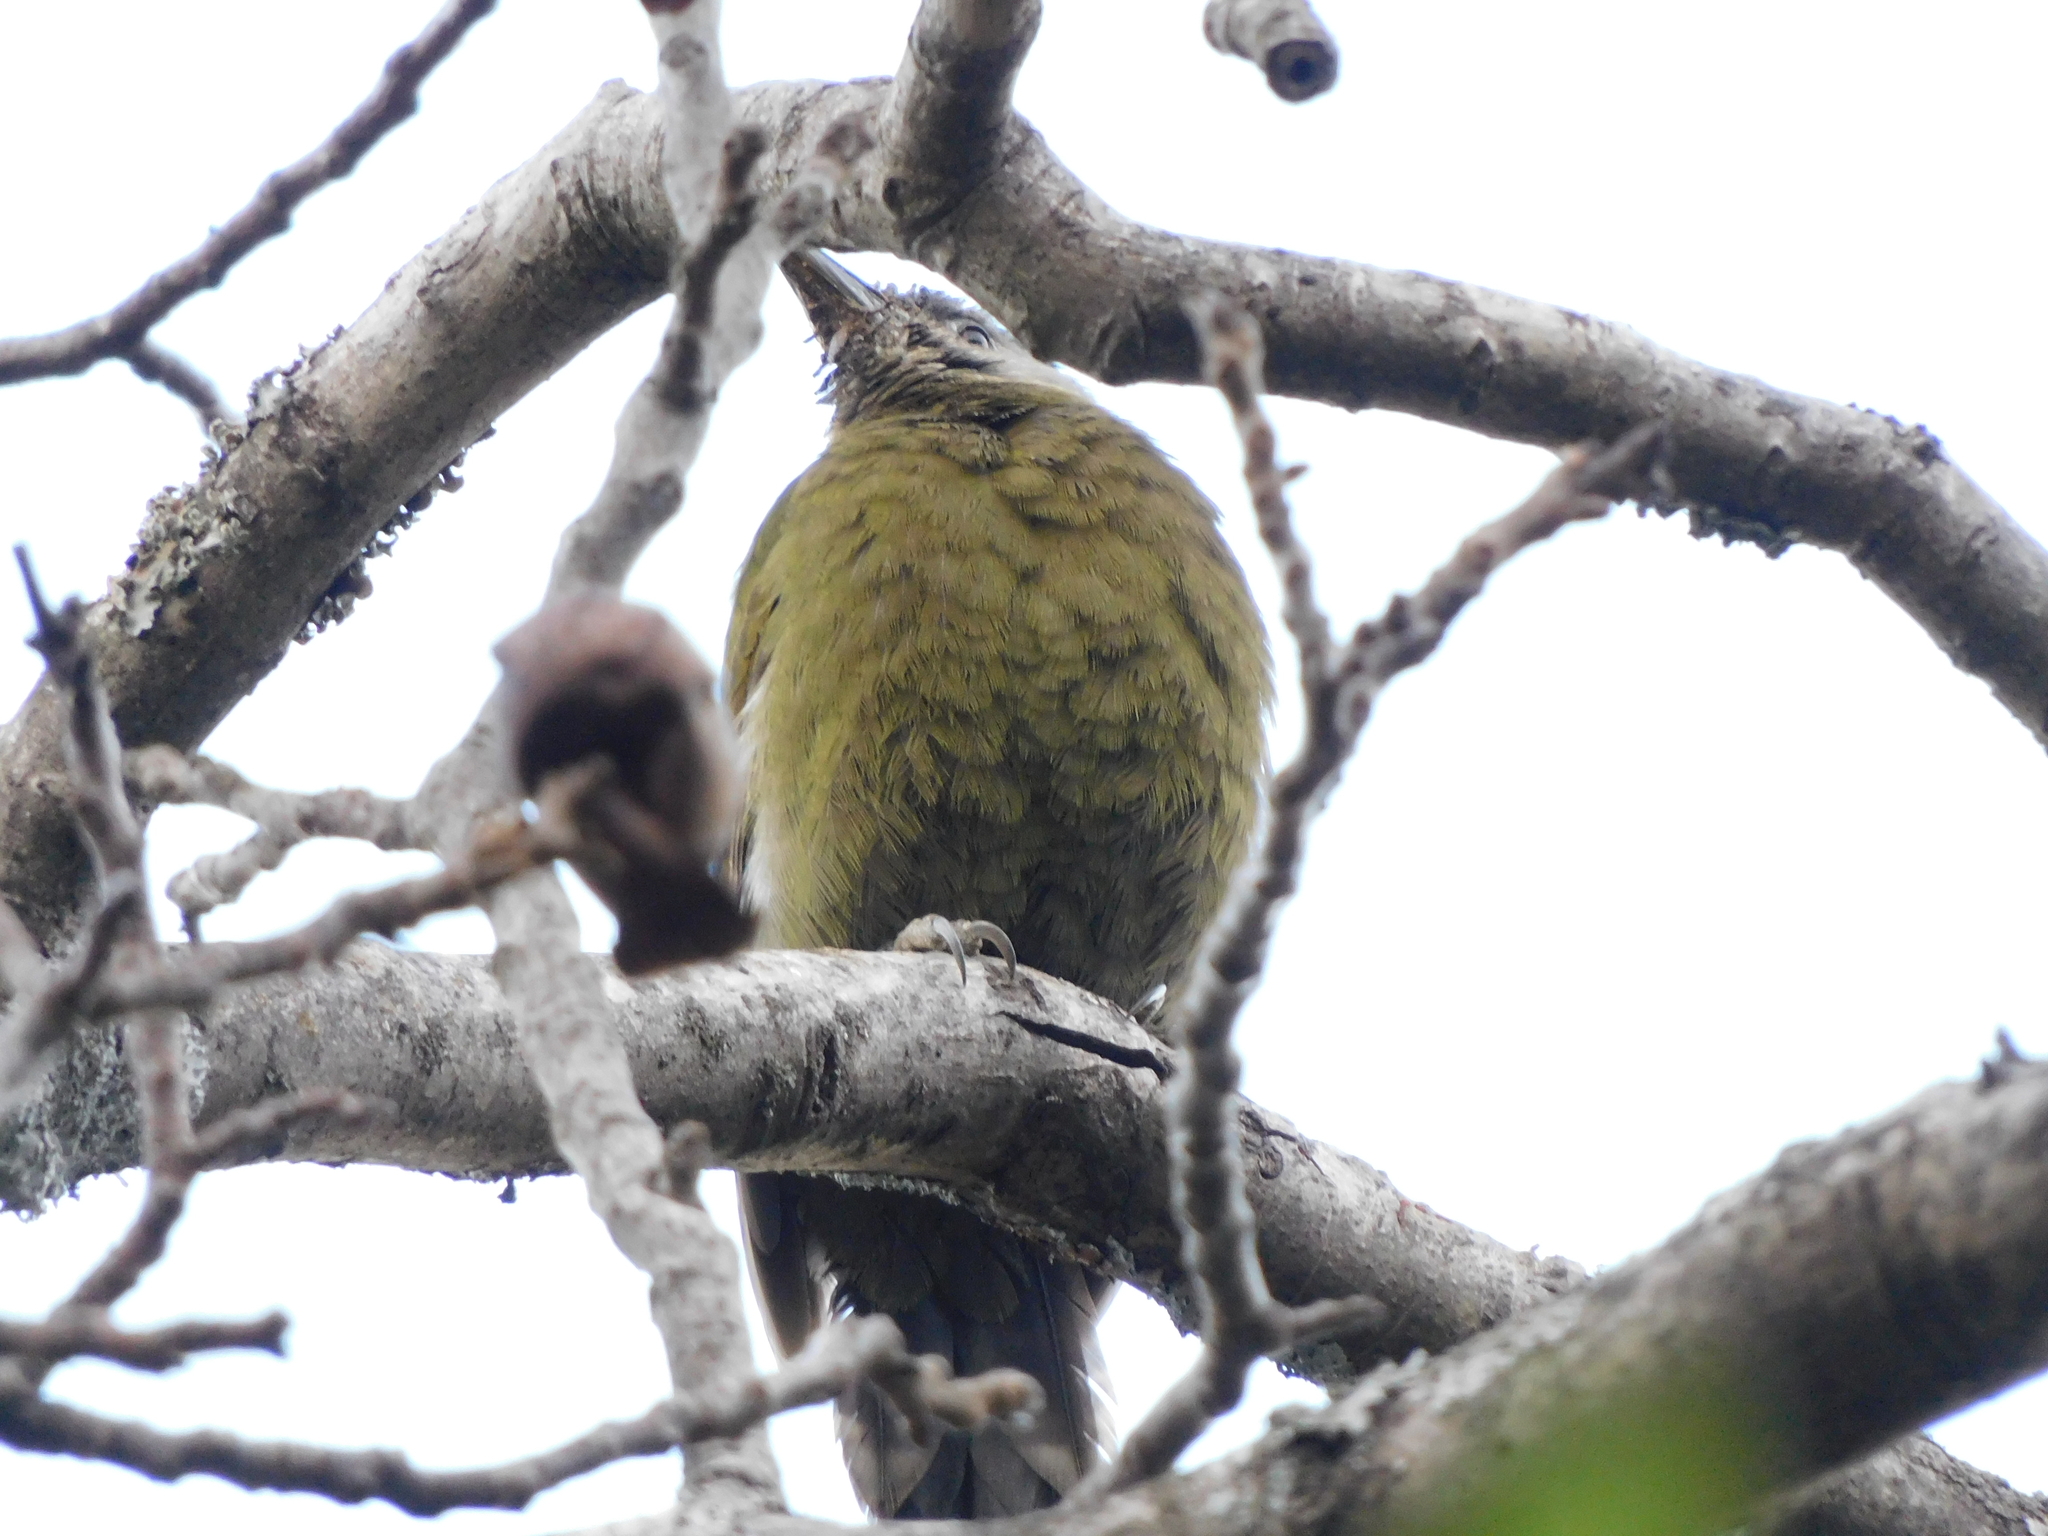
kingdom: Animalia
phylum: Chordata
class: Aves
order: Piciformes
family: Picidae
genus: Picus
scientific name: Picus canus
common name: Grey-headed woodpecker
